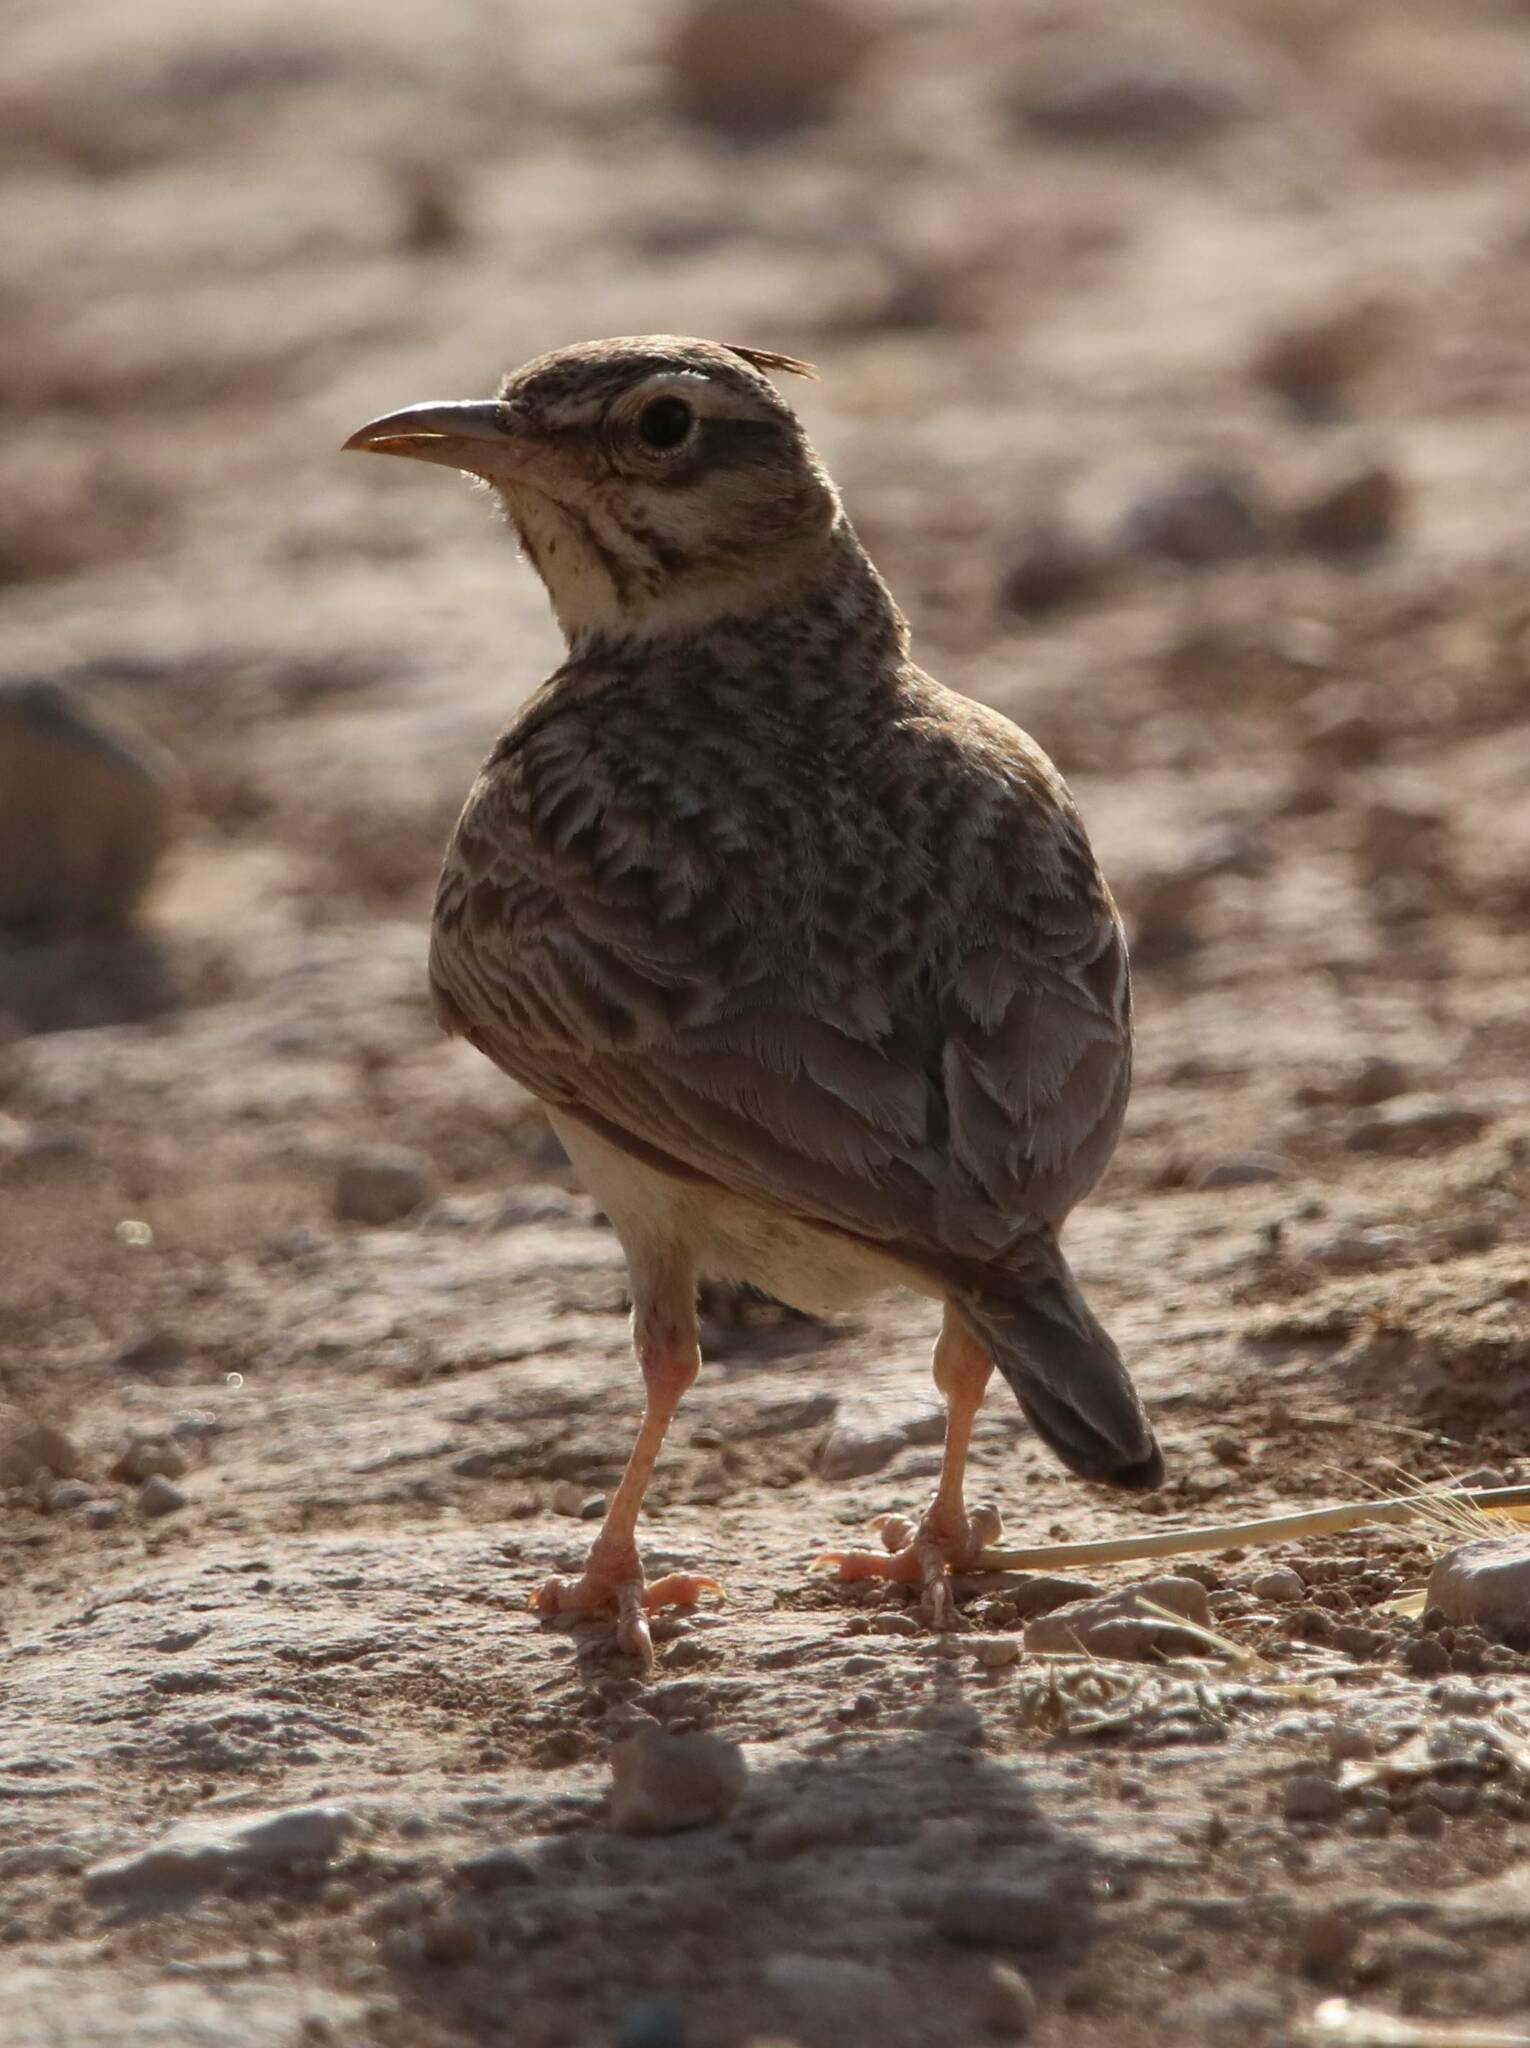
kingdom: Animalia
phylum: Chordata
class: Aves
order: Passeriformes
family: Alaudidae
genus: Galerida
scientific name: Galerida cristata
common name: Crested lark
